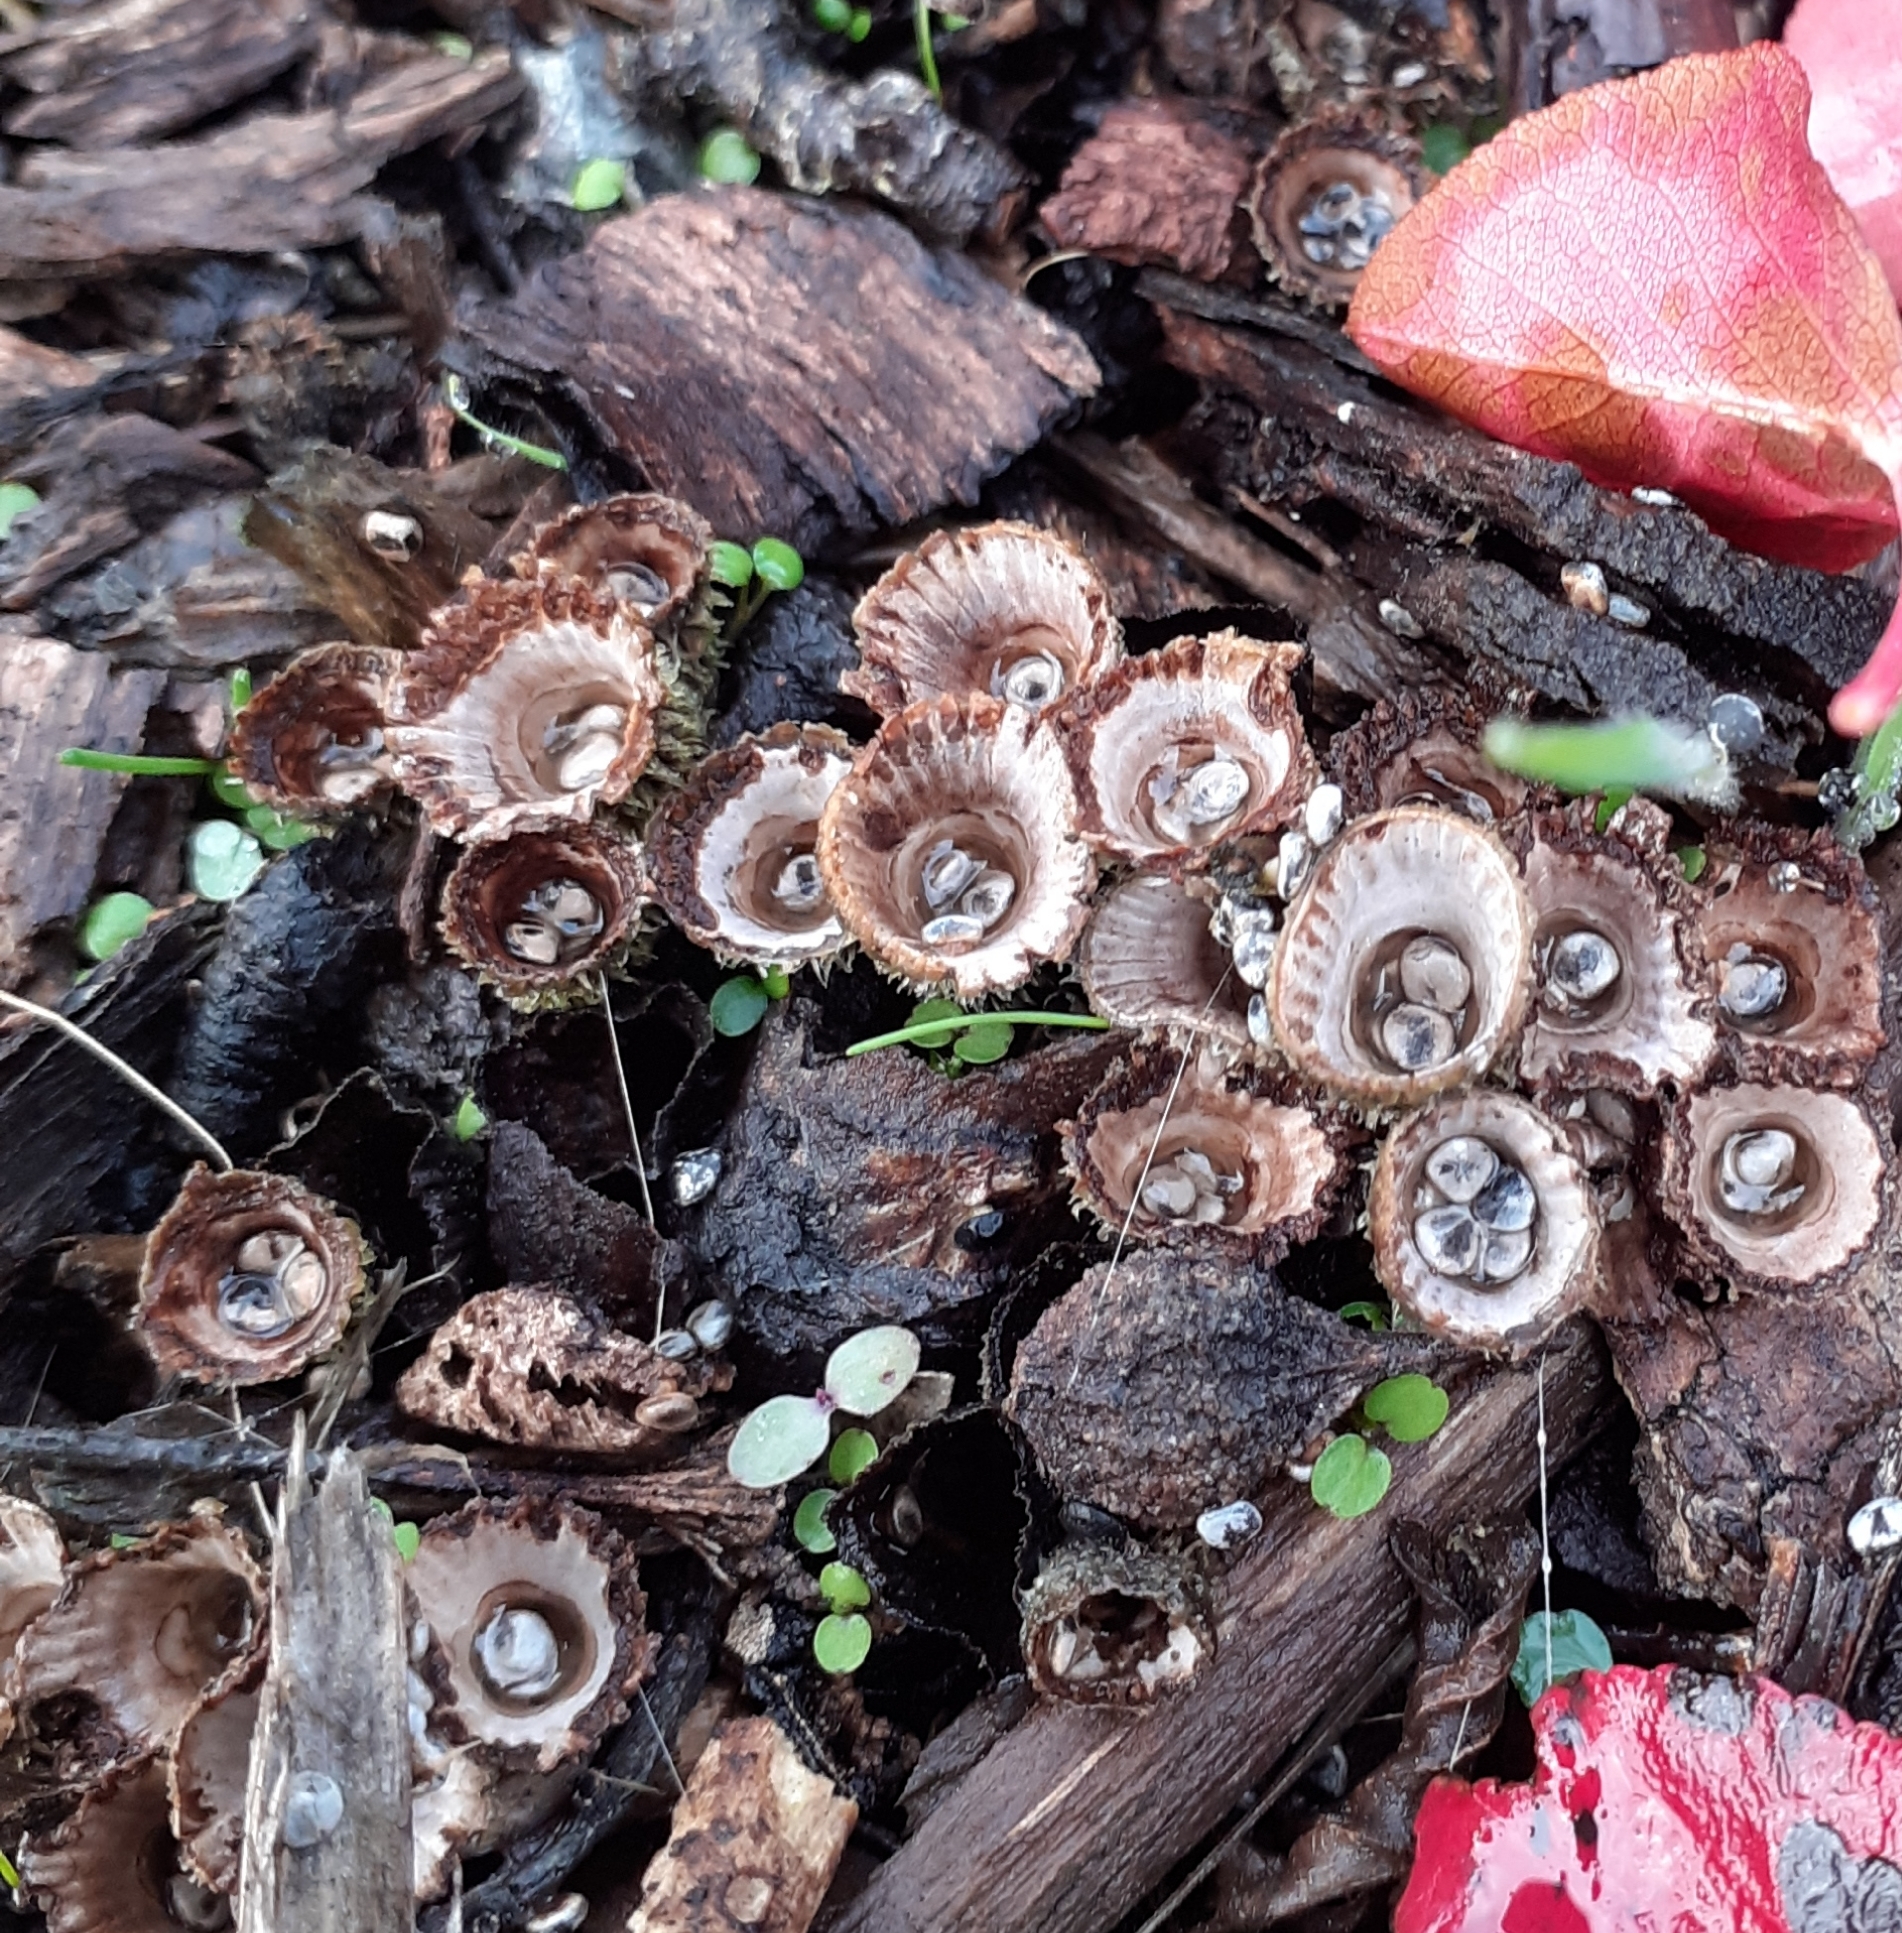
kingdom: Fungi
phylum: Basidiomycota
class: Agaricomycetes
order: Agaricales
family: Agaricaceae
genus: Cyathus
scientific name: Cyathus striatus
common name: Fluted bird's nest
